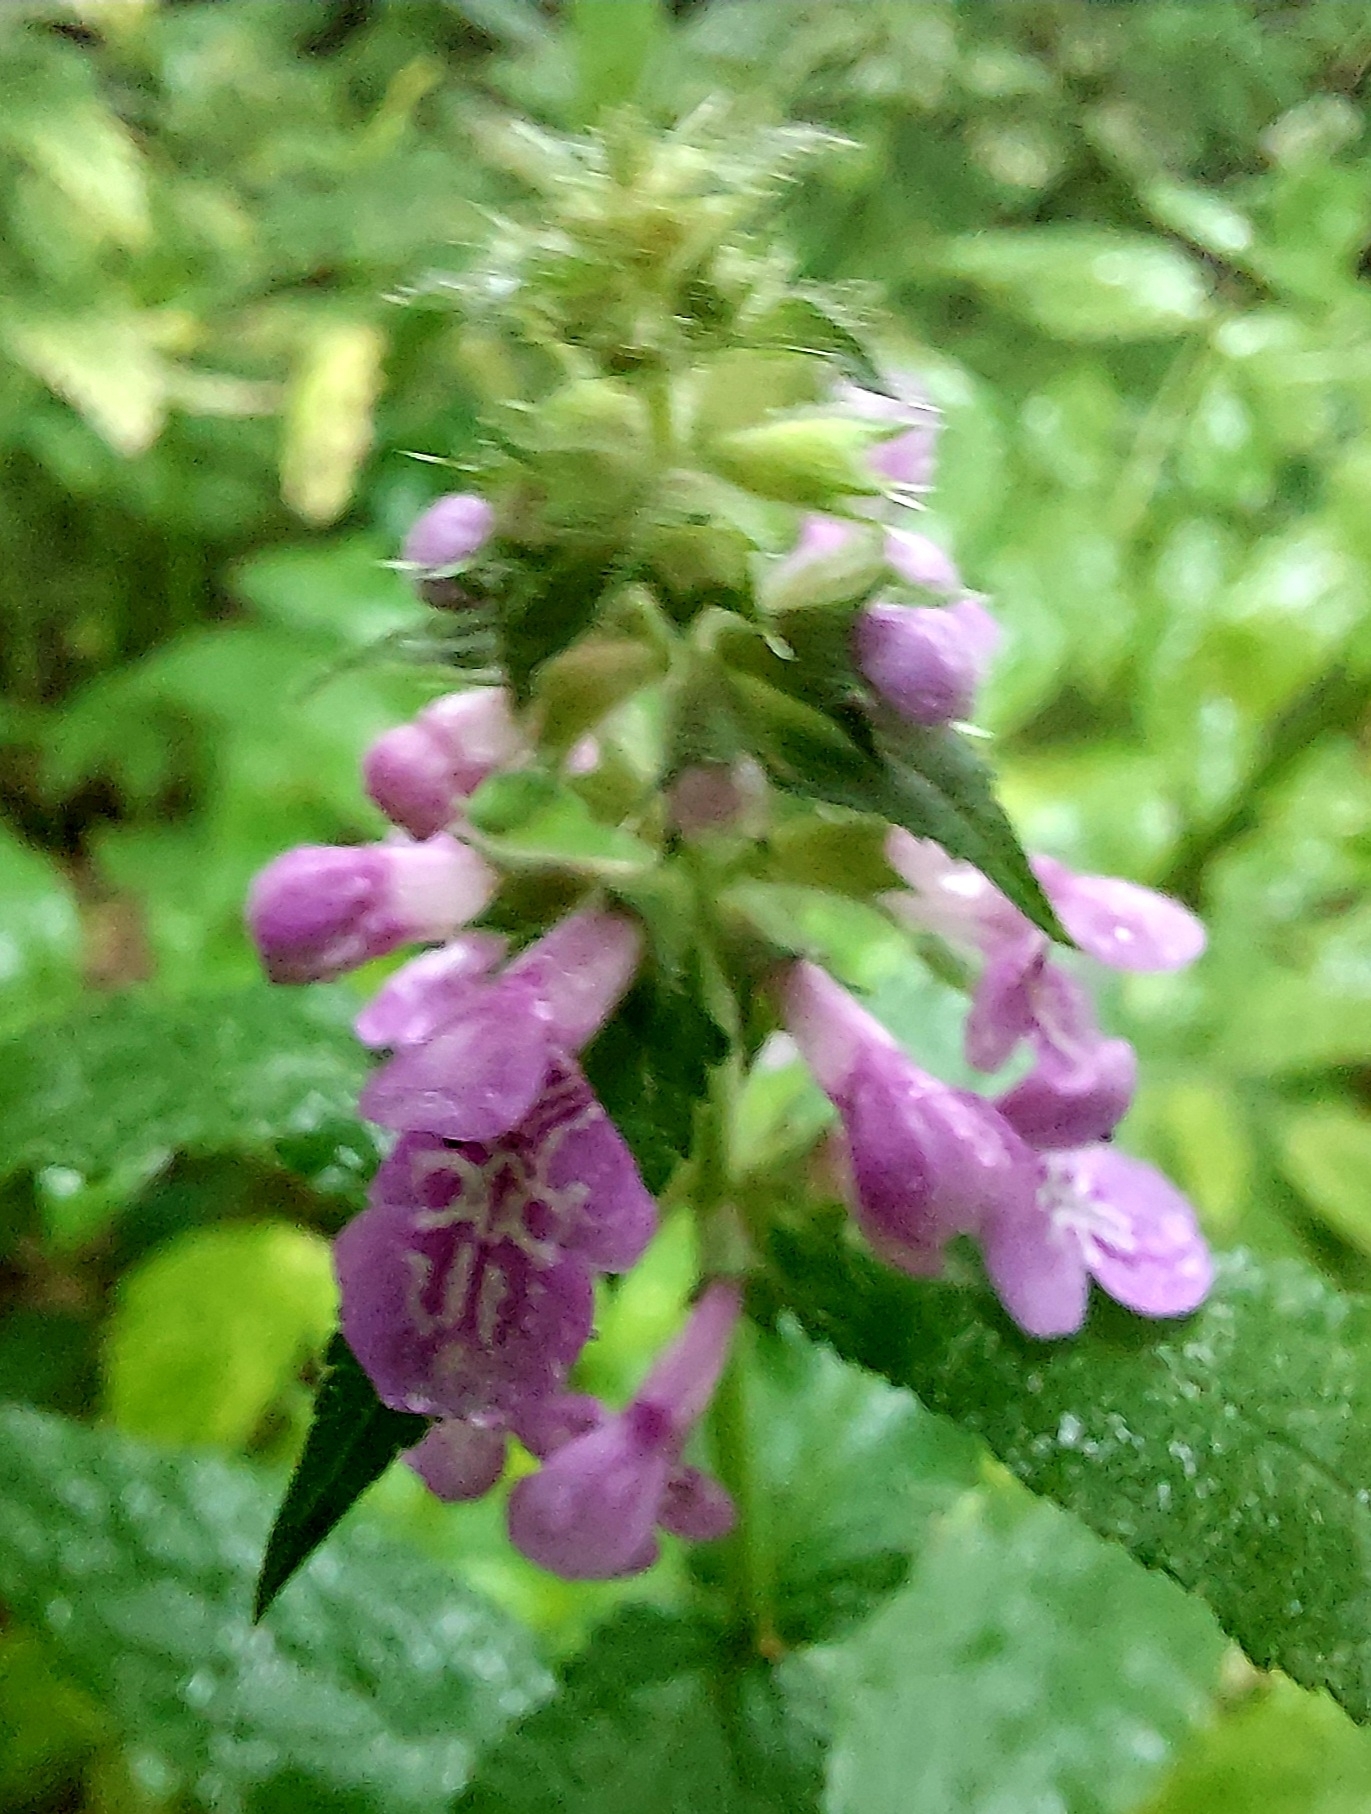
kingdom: Plantae
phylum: Tracheophyta
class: Magnoliopsida
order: Lamiales
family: Lamiaceae
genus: Stachys
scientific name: Stachys palustris
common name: Marsh woundwort
